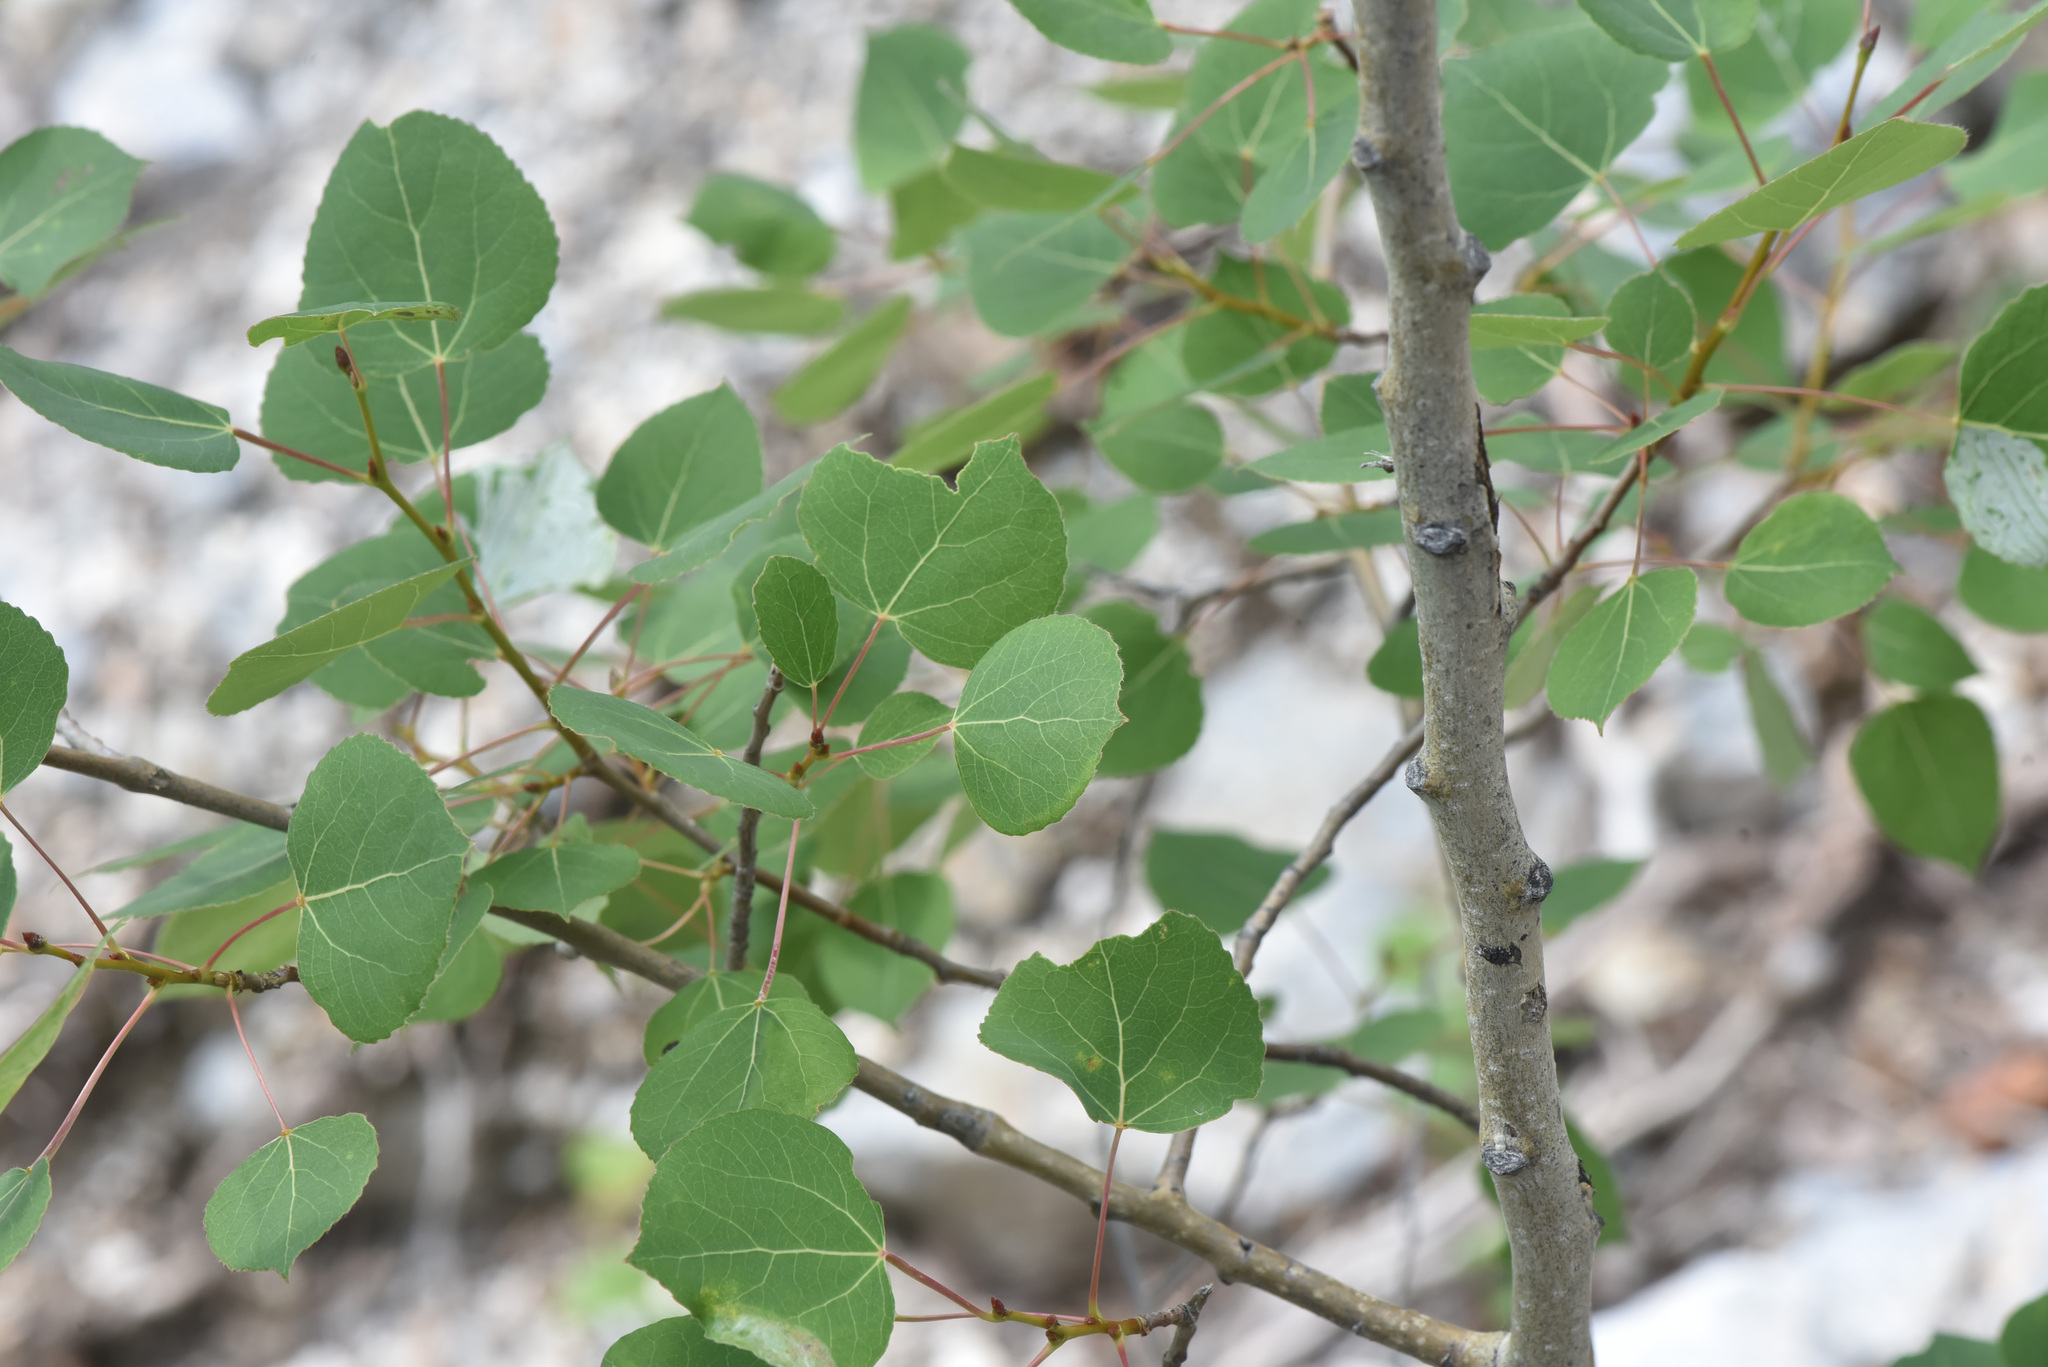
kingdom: Plantae
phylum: Tracheophyta
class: Magnoliopsida
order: Malpighiales
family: Salicaceae
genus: Populus
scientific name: Populus tremuloides
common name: Quaking aspen
